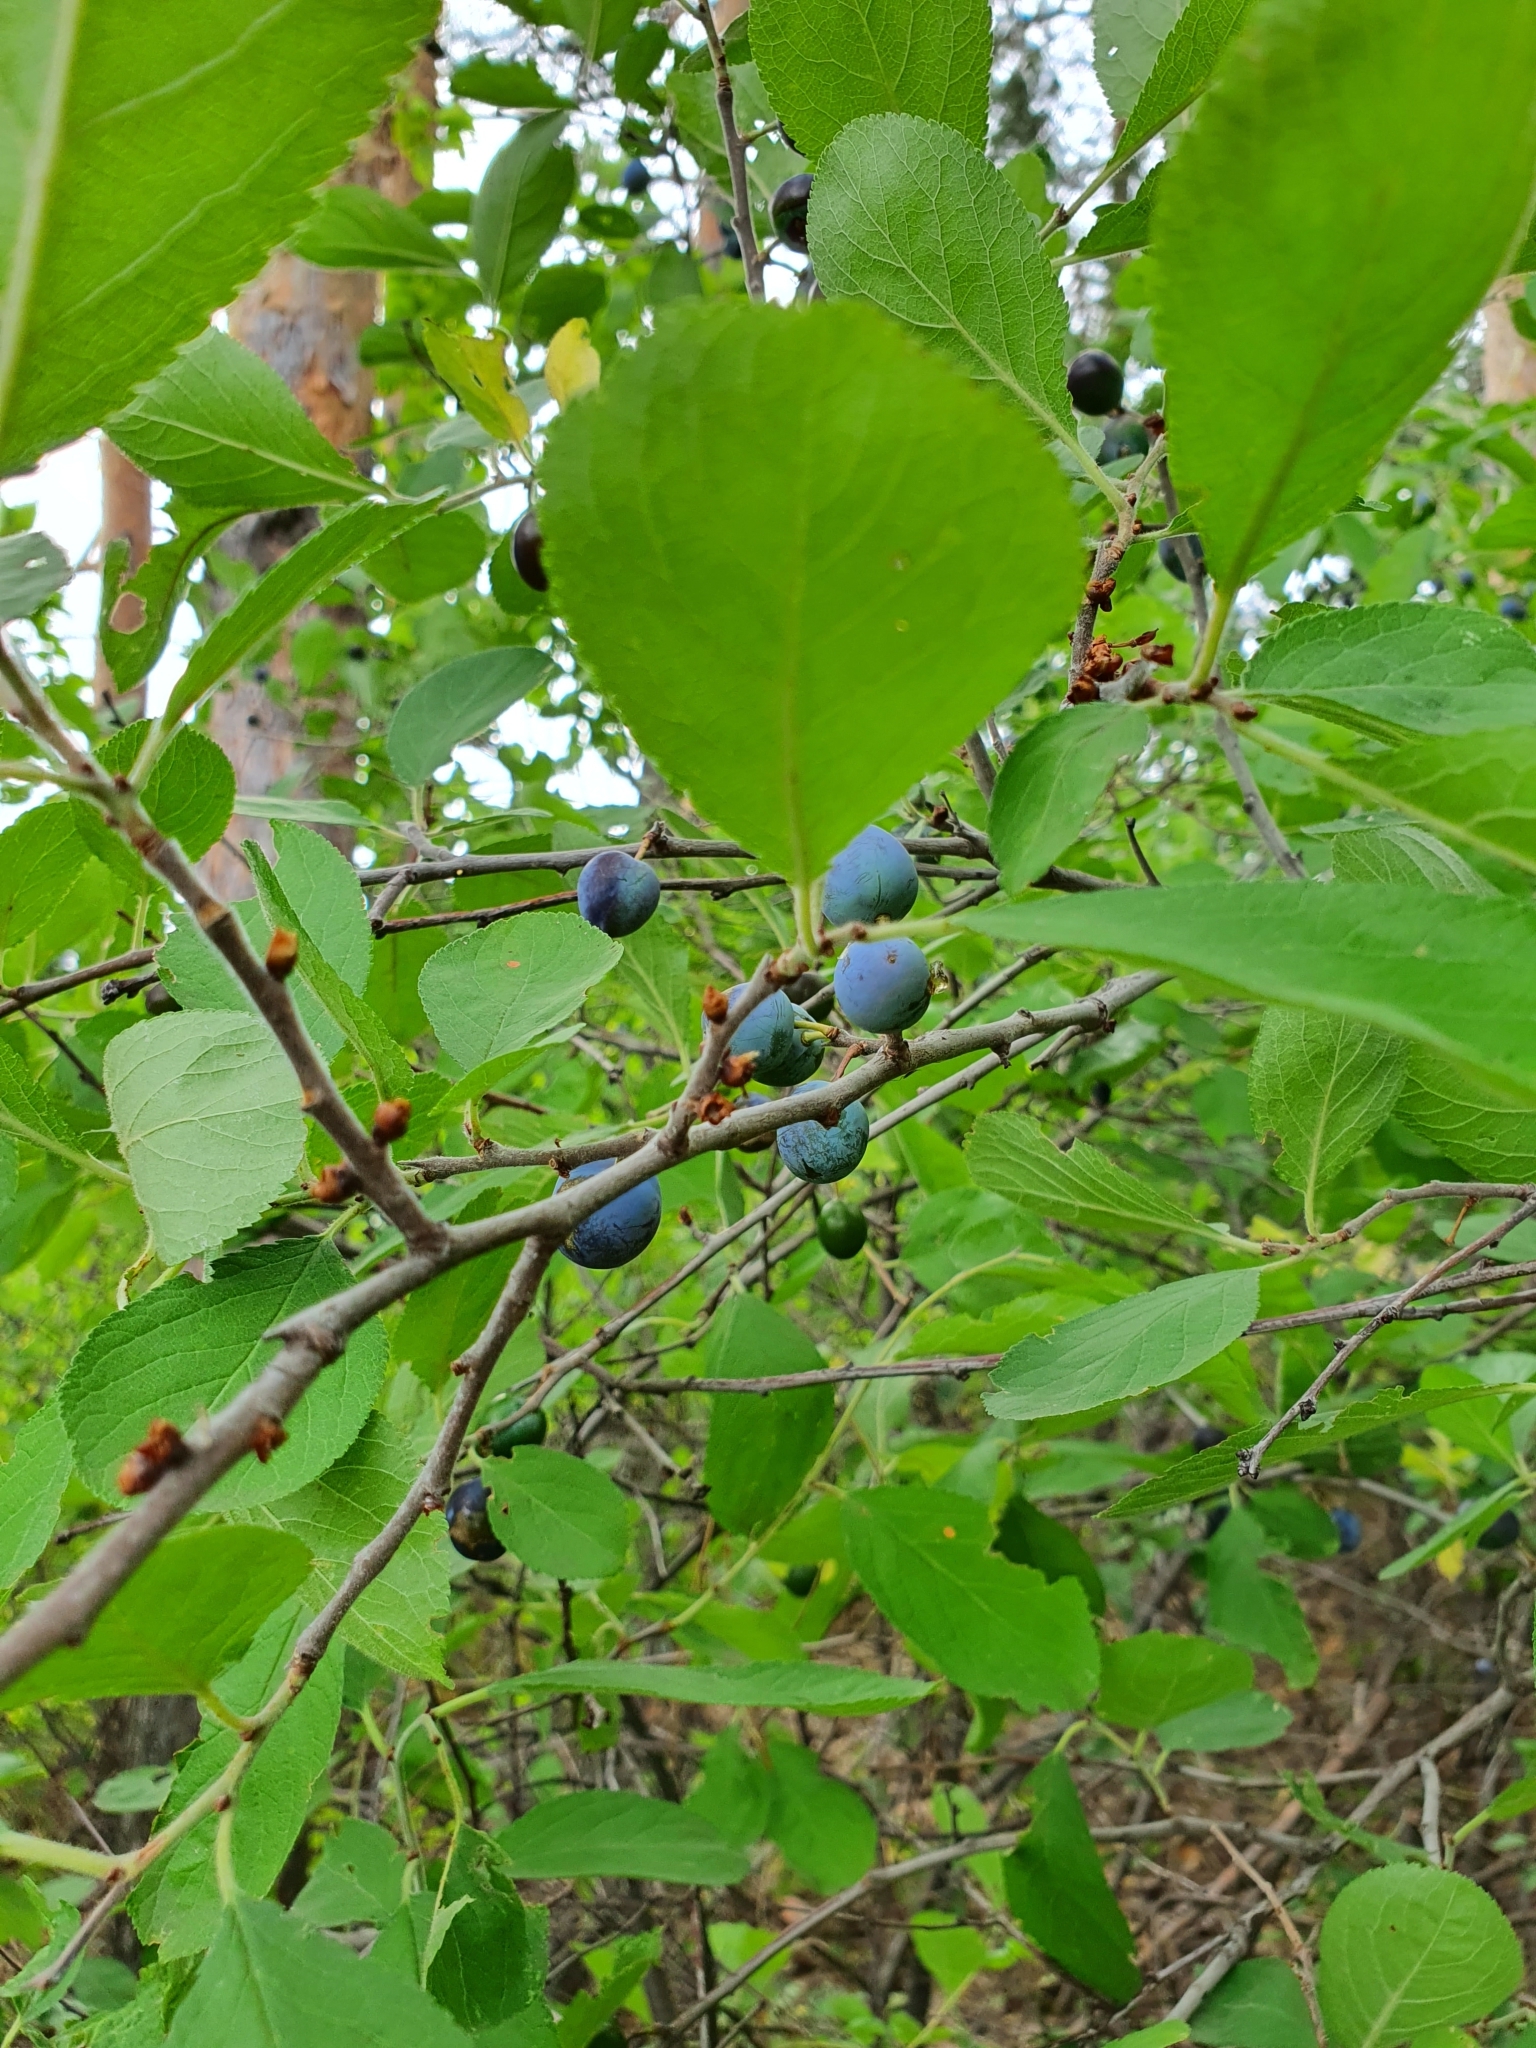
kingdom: Plantae
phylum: Tracheophyta
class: Magnoliopsida
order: Rosales
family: Rosaceae
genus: Prunus
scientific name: Prunus spinosa
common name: Blackthorn
